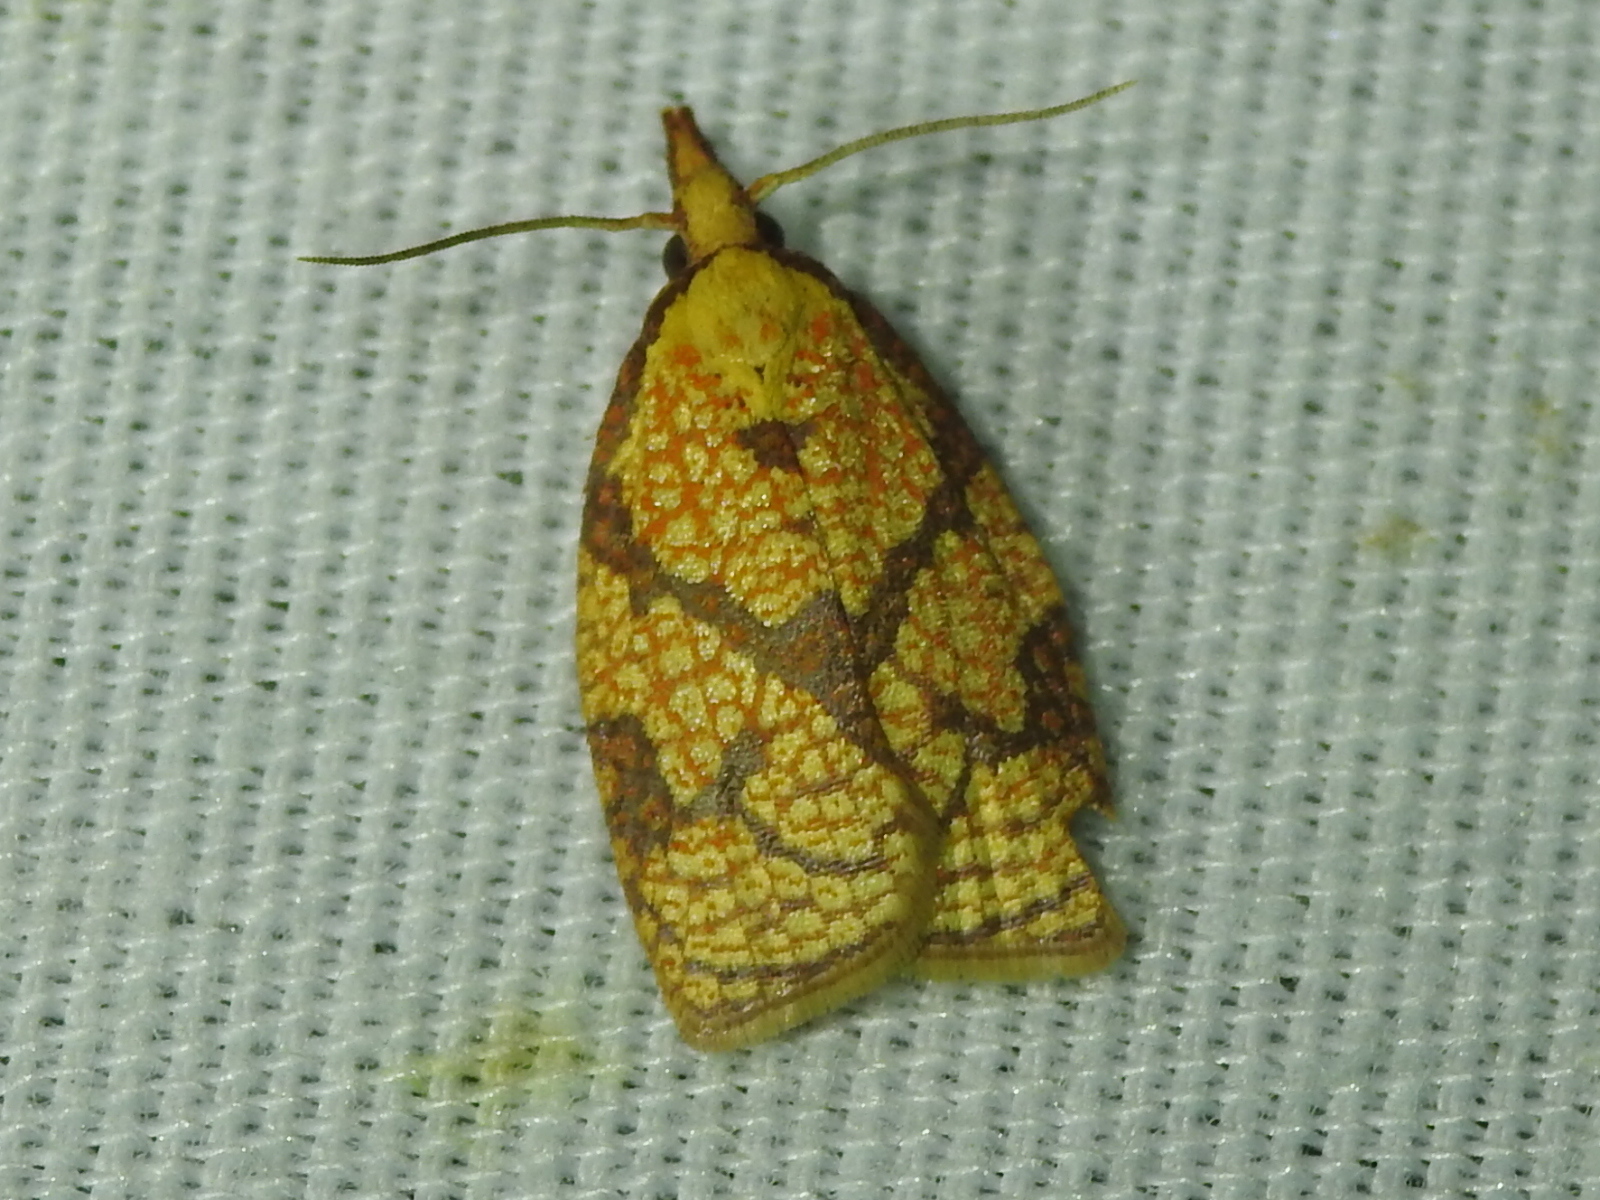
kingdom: Animalia
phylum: Arthropoda
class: Insecta
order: Lepidoptera
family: Tortricidae
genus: Cenopis
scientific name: Cenopis reticulatana
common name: Reticulated fruitworm moth
